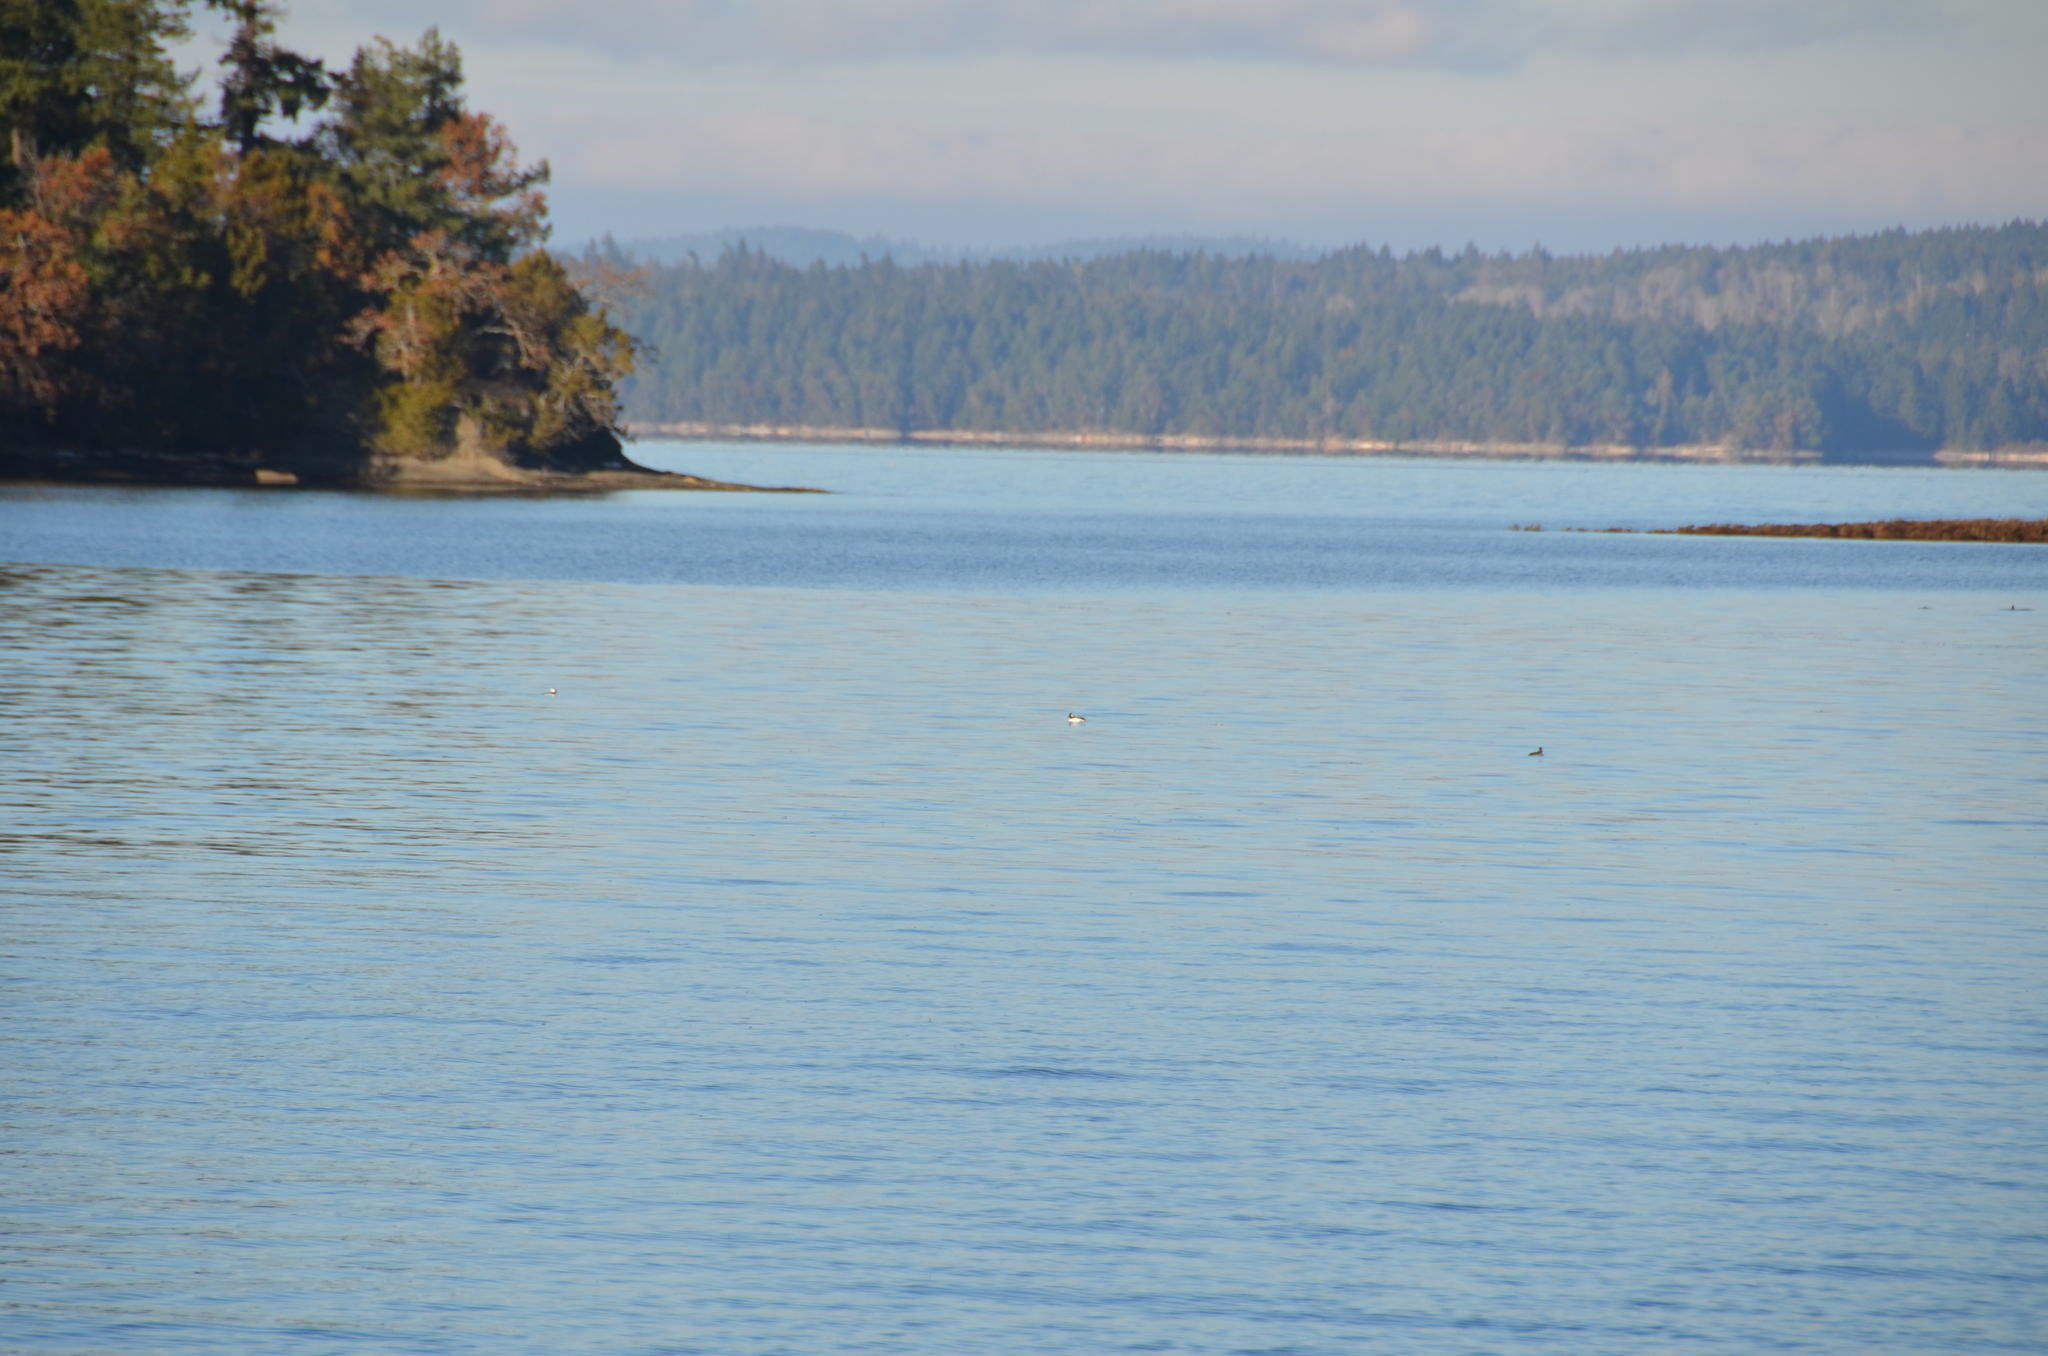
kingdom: Animalia
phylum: Chordata
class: Aves
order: Anseriformes
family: Anatidae
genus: Bucephala
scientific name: Bucephala albeola
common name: Bufflehead
